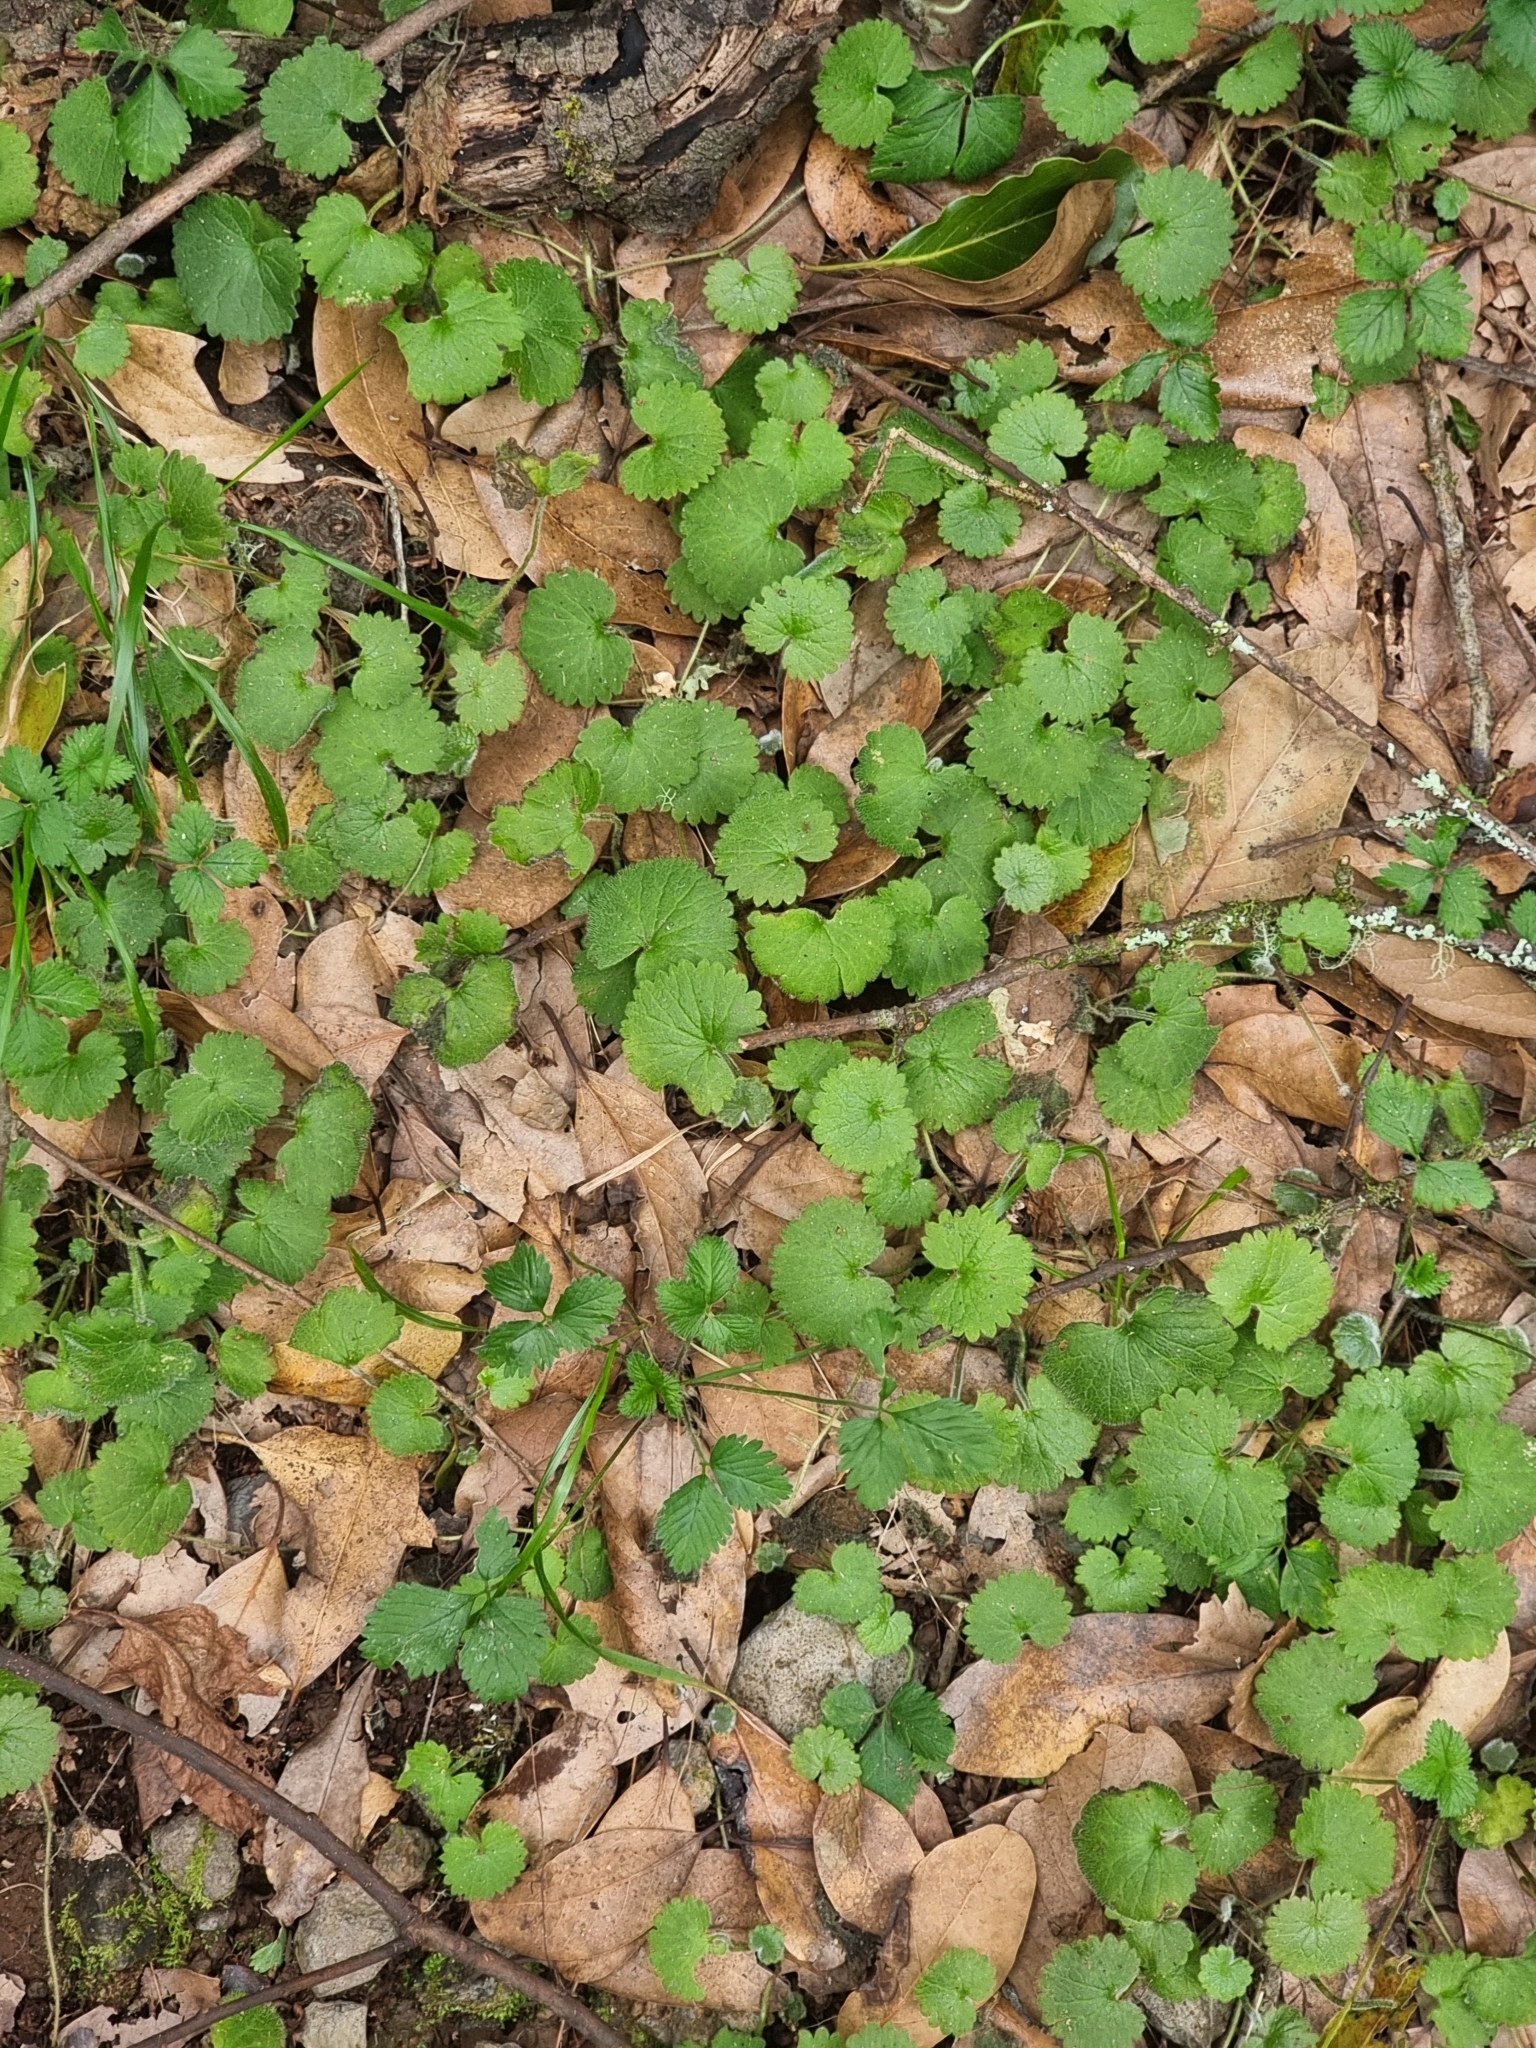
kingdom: Plantae
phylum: Tracheophyta
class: Magnoliopsida
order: Lamiales
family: Plantaginaceae
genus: Sibthorpia
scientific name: Sibthorpia peregrina
